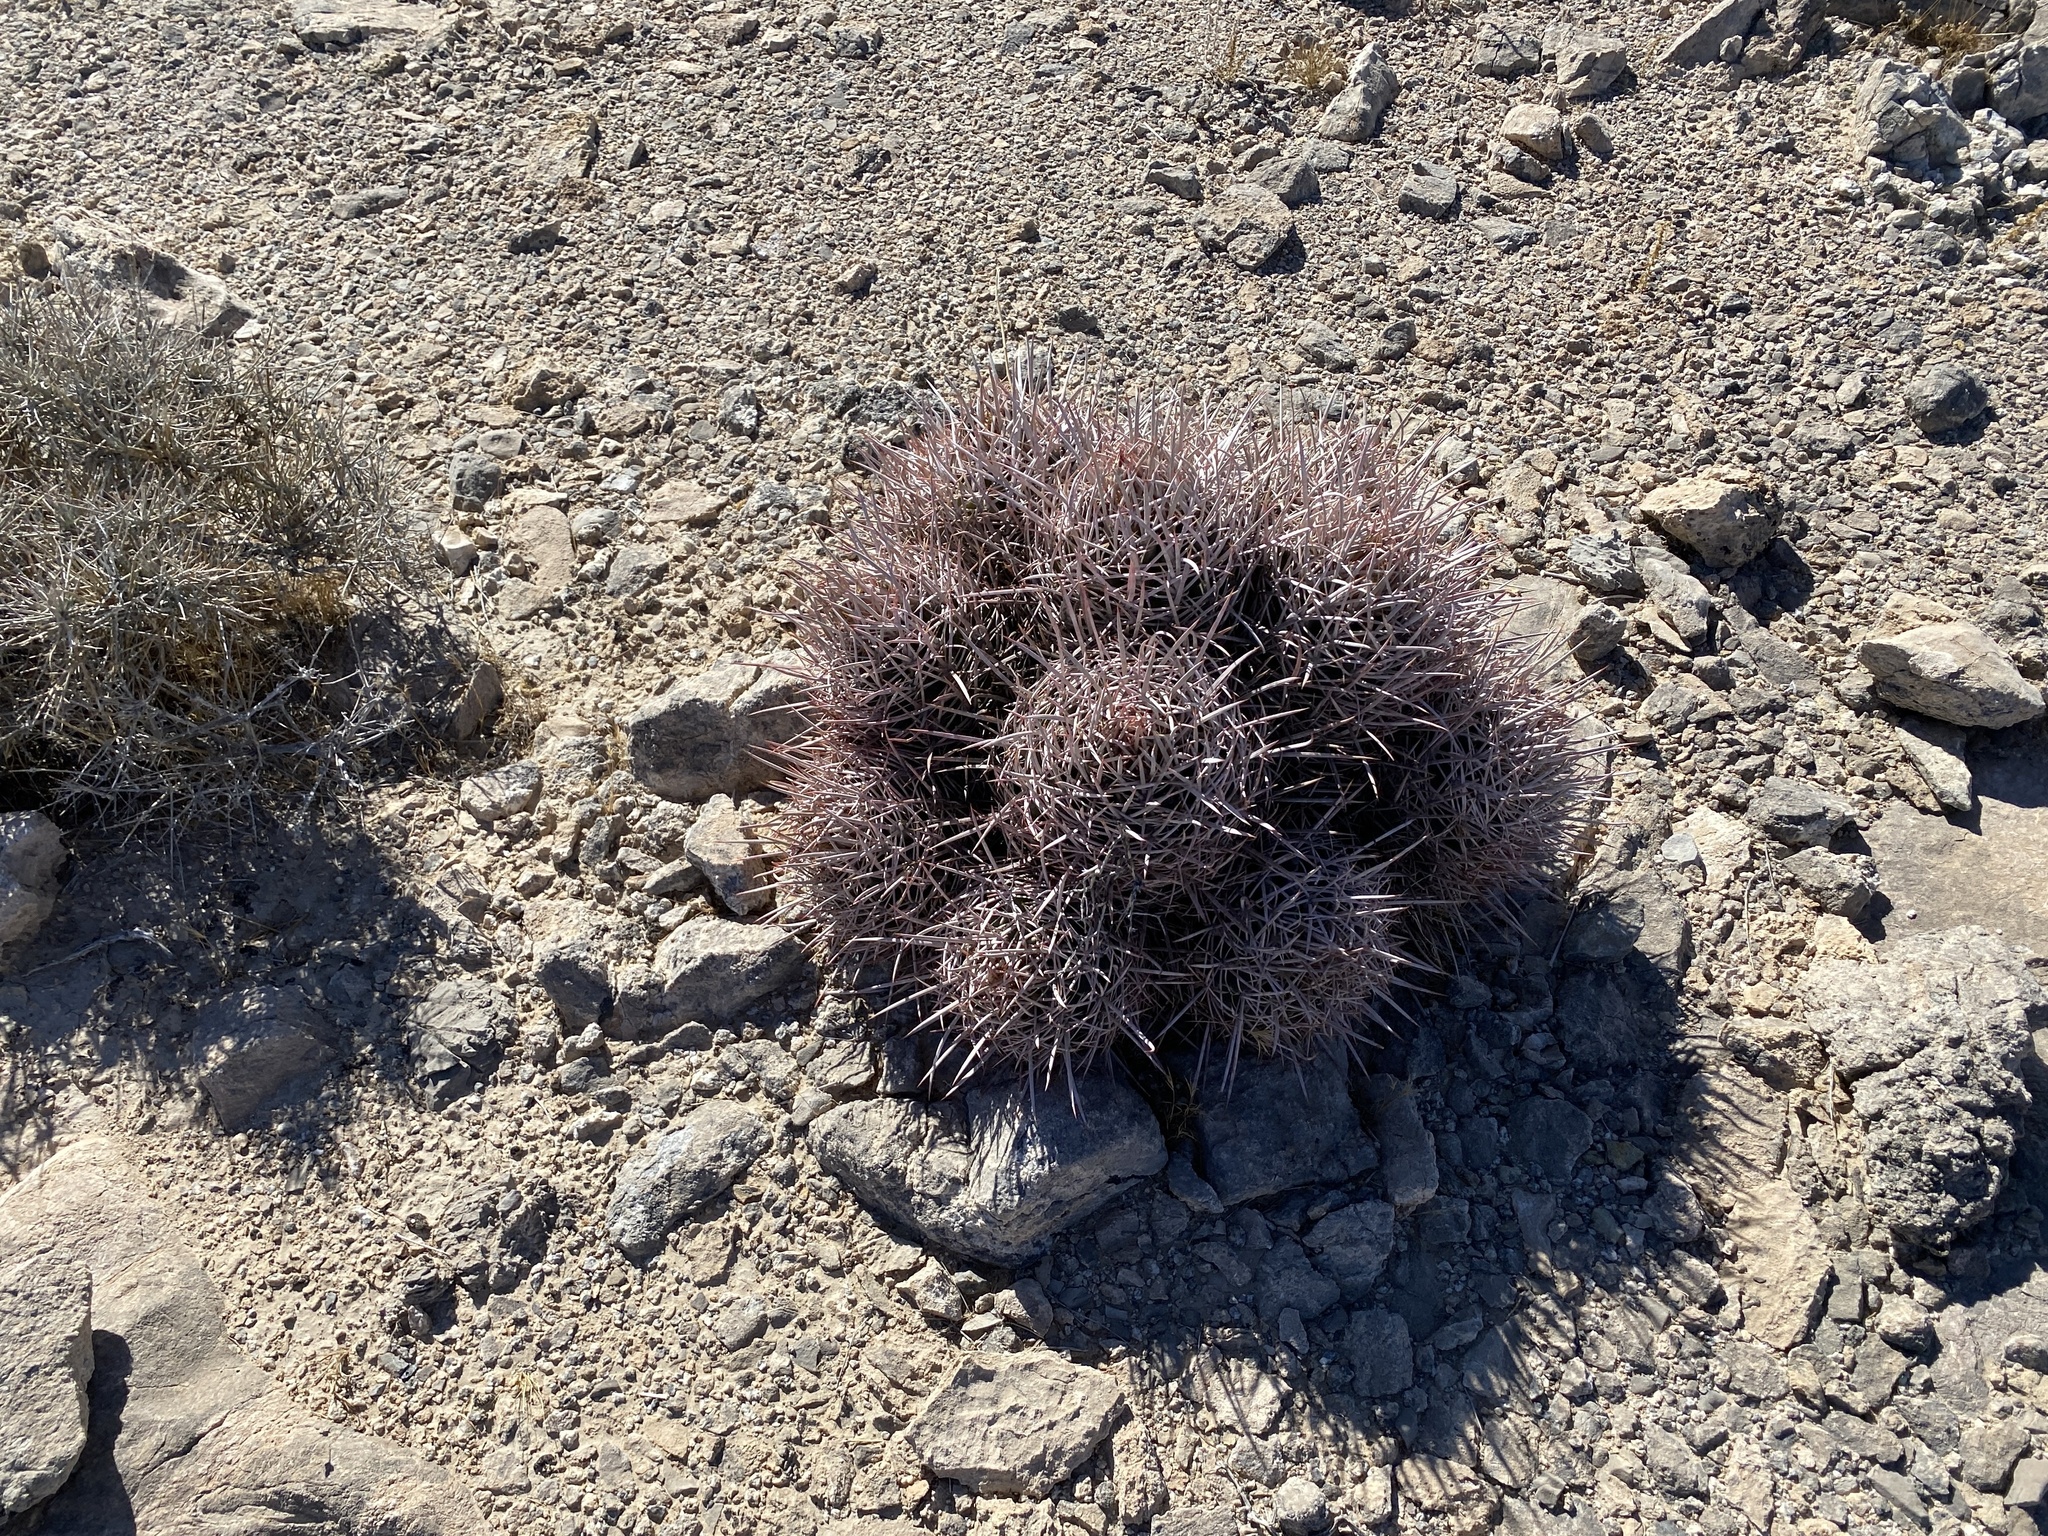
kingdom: Plantae
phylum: Tracheophyta
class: Magnoliopsida
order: Caryophyllales
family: Cactaceae
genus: Echinocactus
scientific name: Echinocactus polycephalus
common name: Cottontop cactus
